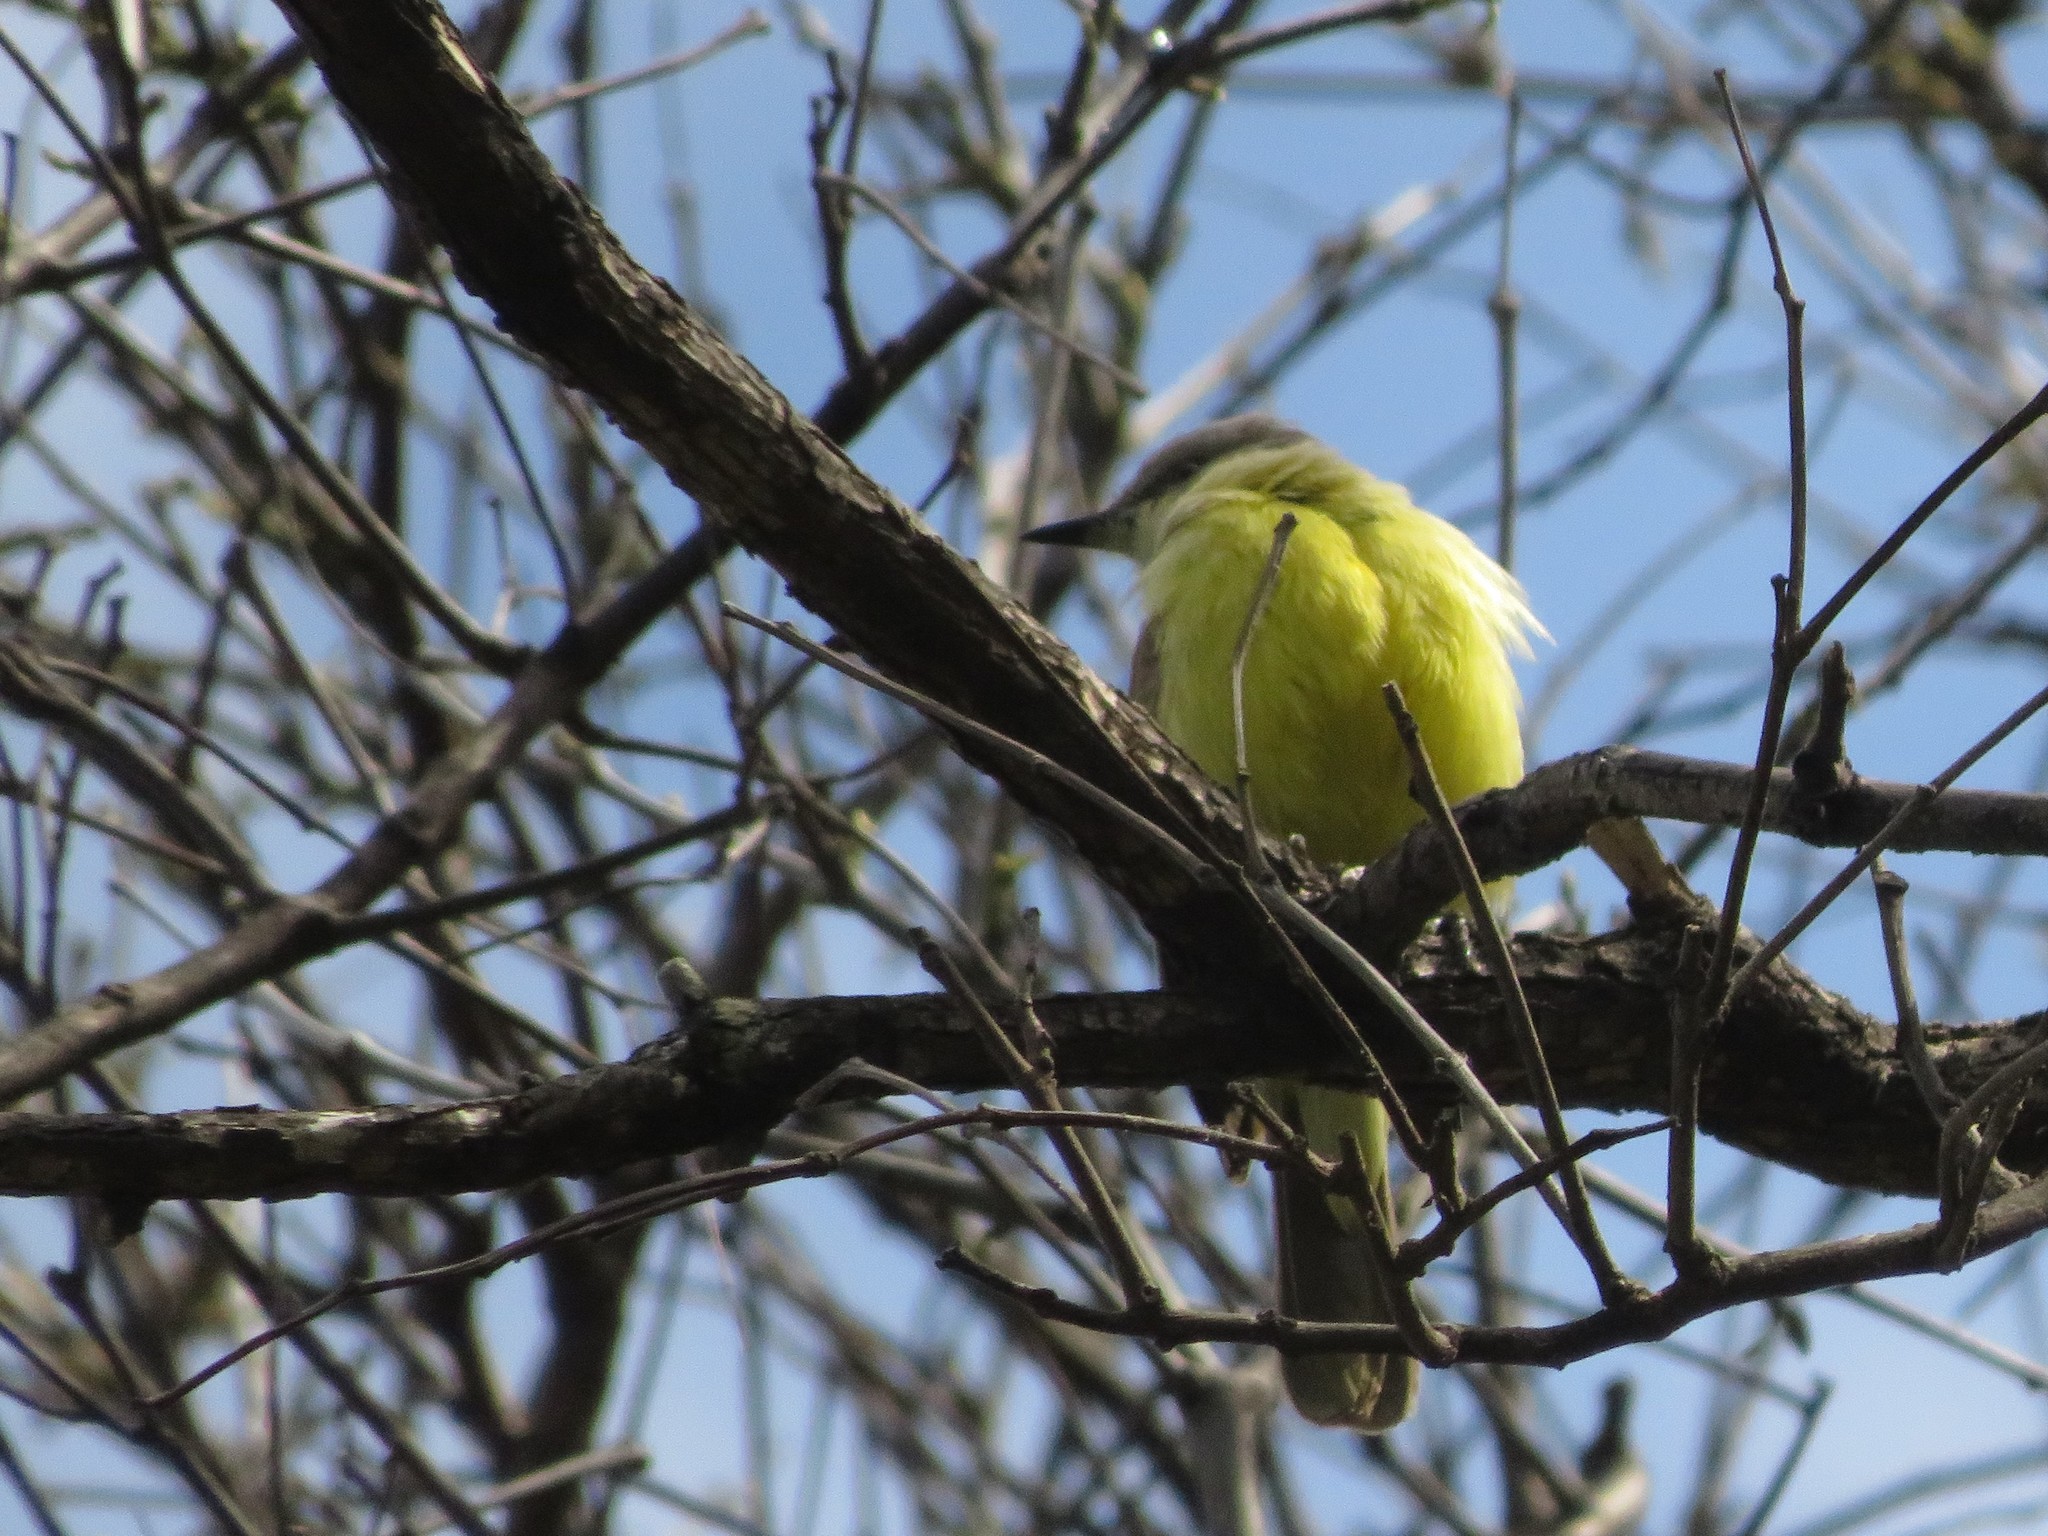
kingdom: Animalia
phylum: Chordata
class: Aves
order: Passeriformes
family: Tyrannidae
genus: Machetornis
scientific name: Machetornis rixosa
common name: Cattle tyrant
